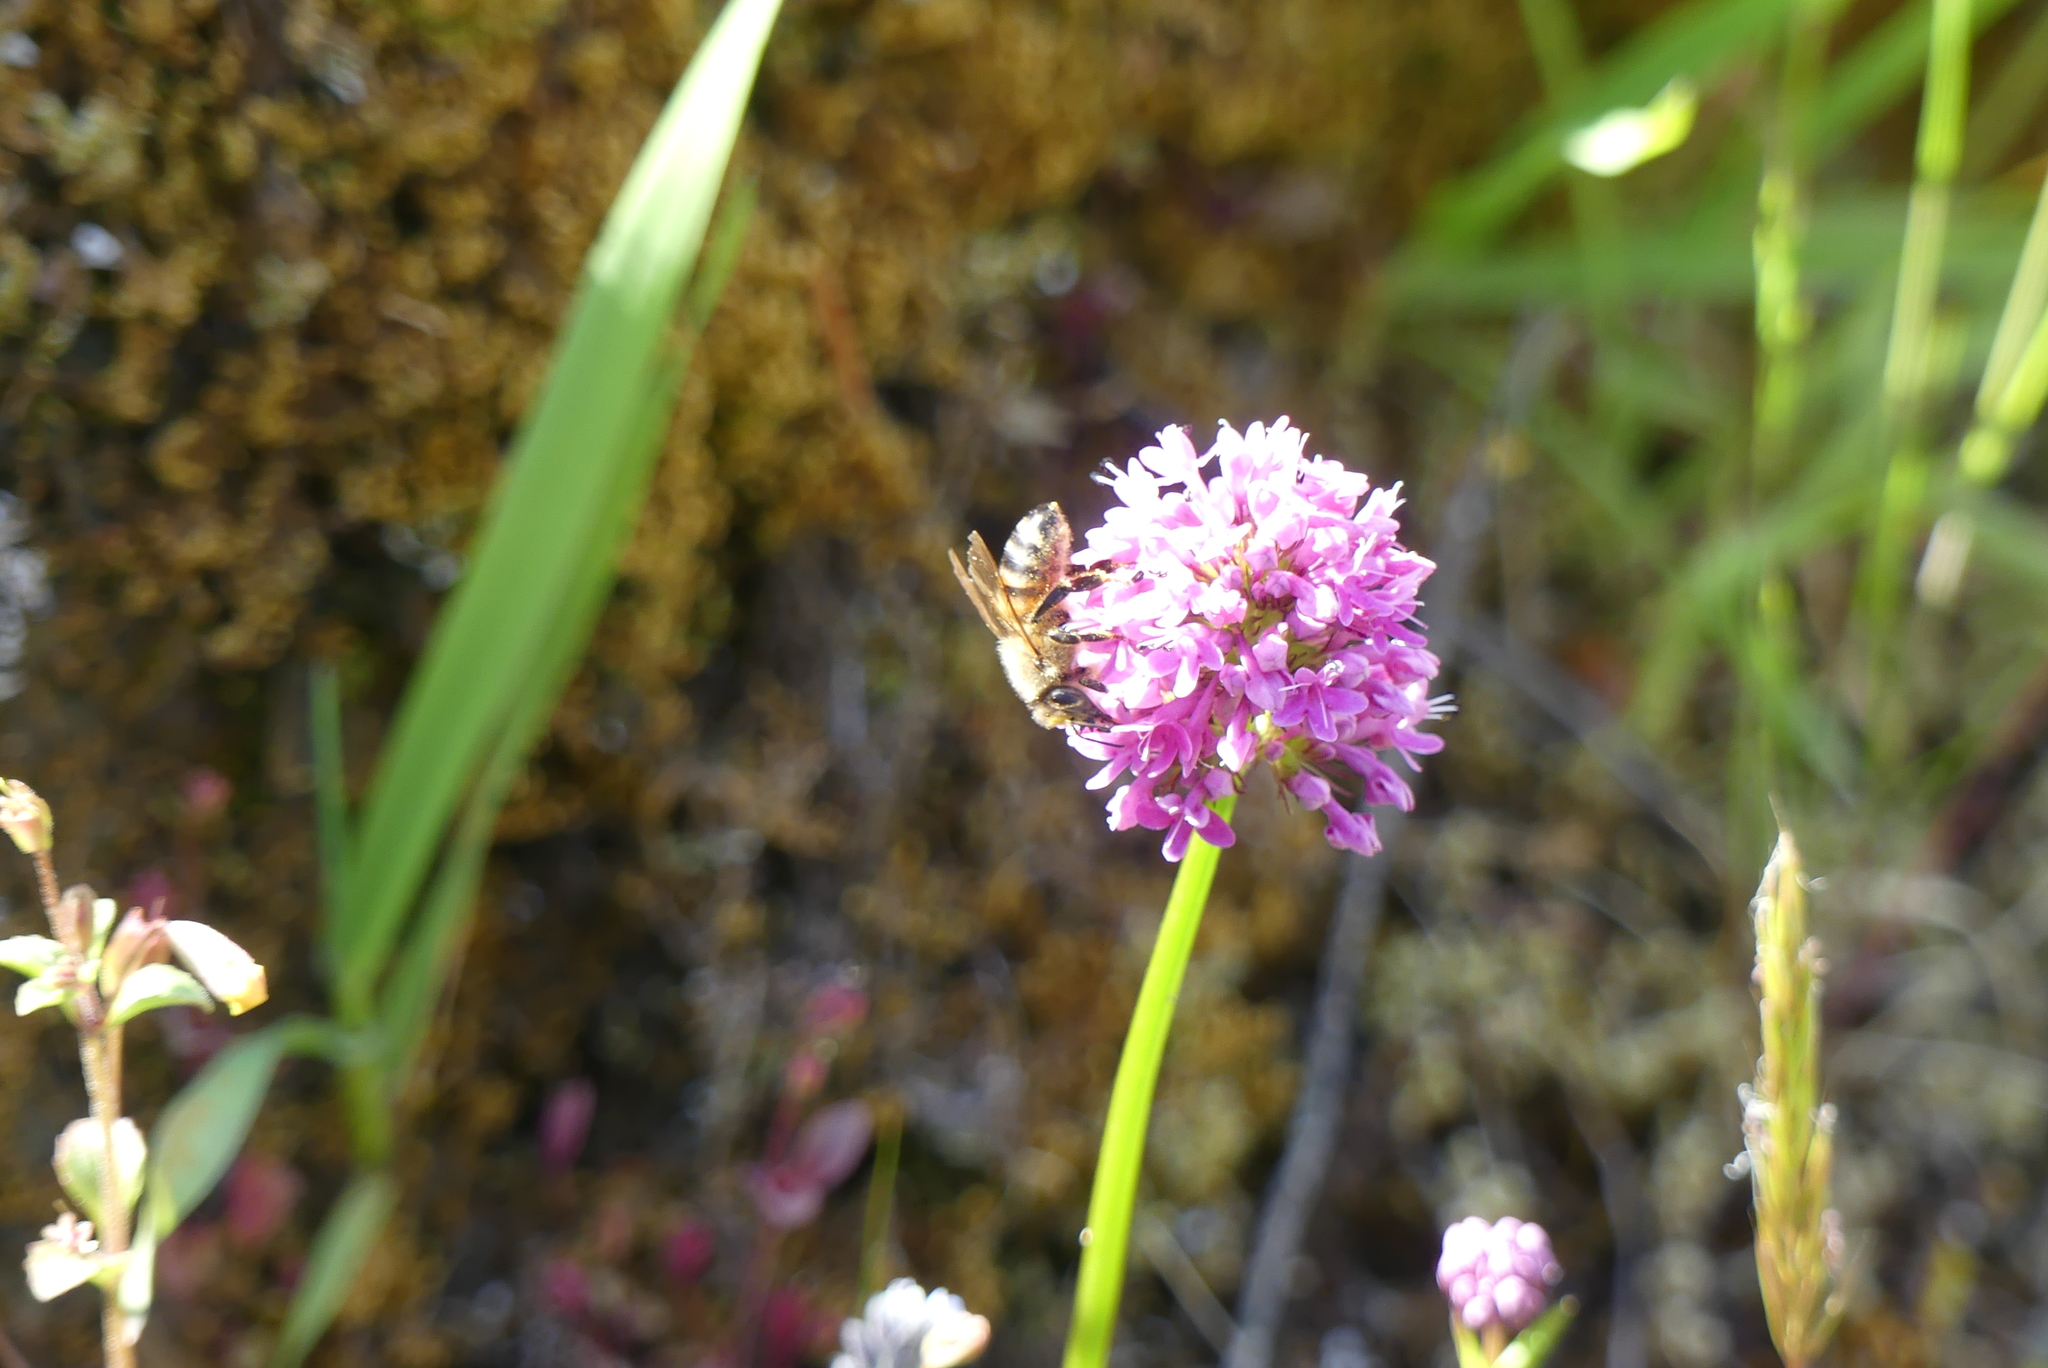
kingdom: Animalia
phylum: Arthropoda
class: Insecta
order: Hymenoptera
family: Apidae
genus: Apis
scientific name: Apis mellifera
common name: Honey bee
